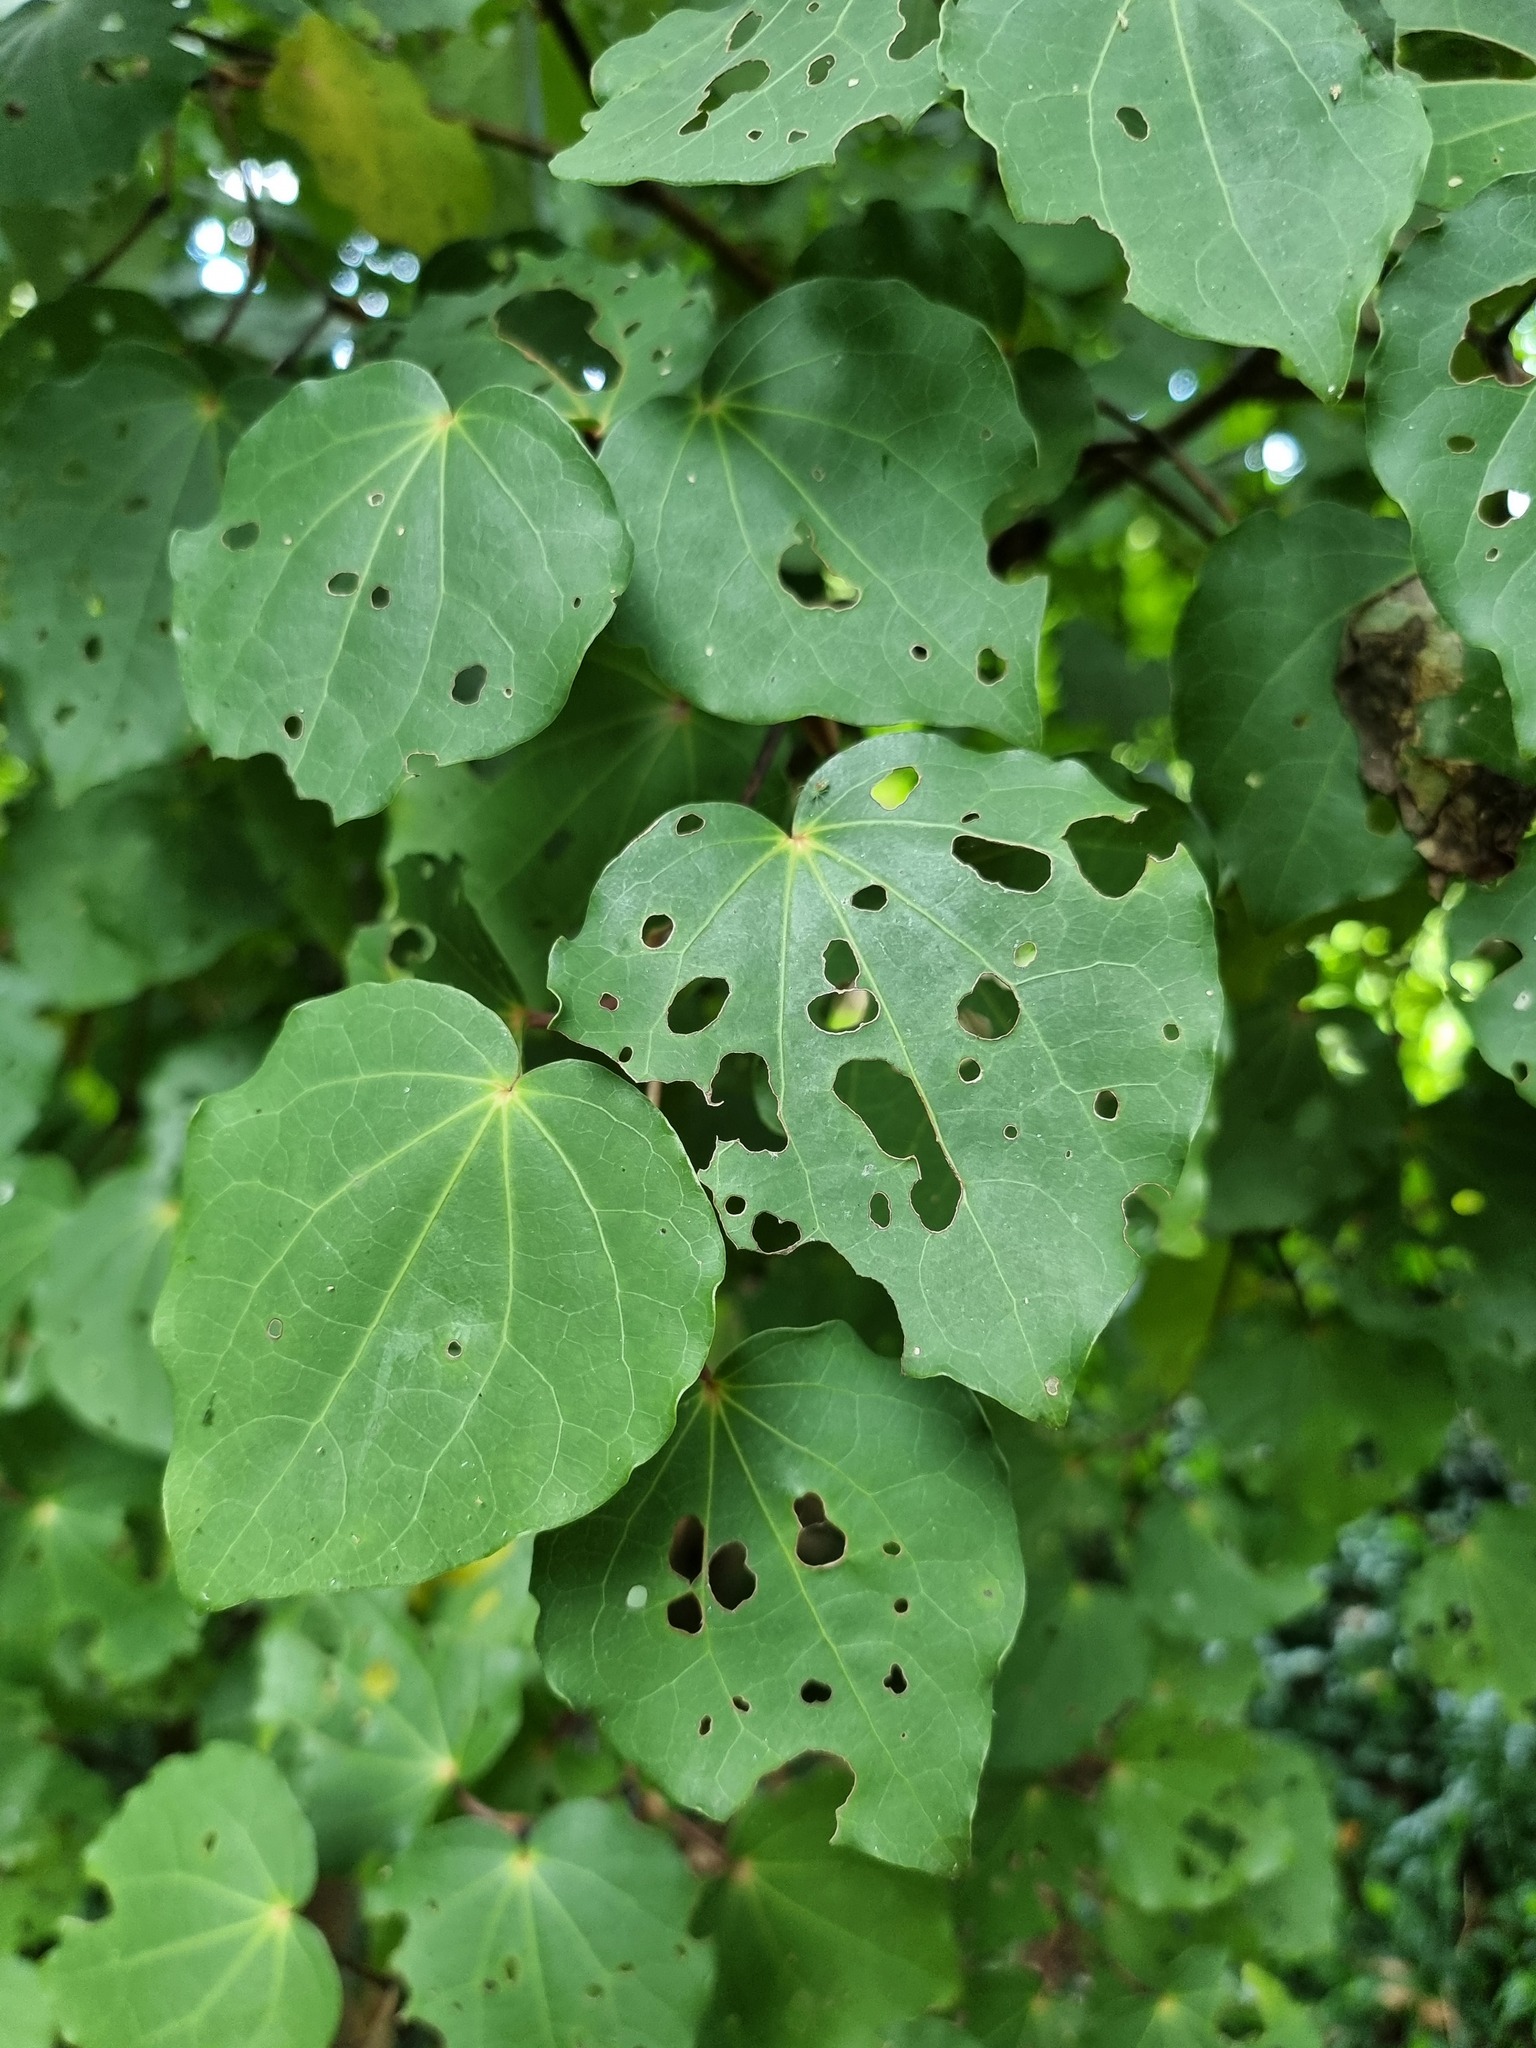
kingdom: Plantae
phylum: Tracheophyta
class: Magnoliopsida
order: Piperales
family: Piperaceae
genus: Macropiper
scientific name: Macropiper excelsum
